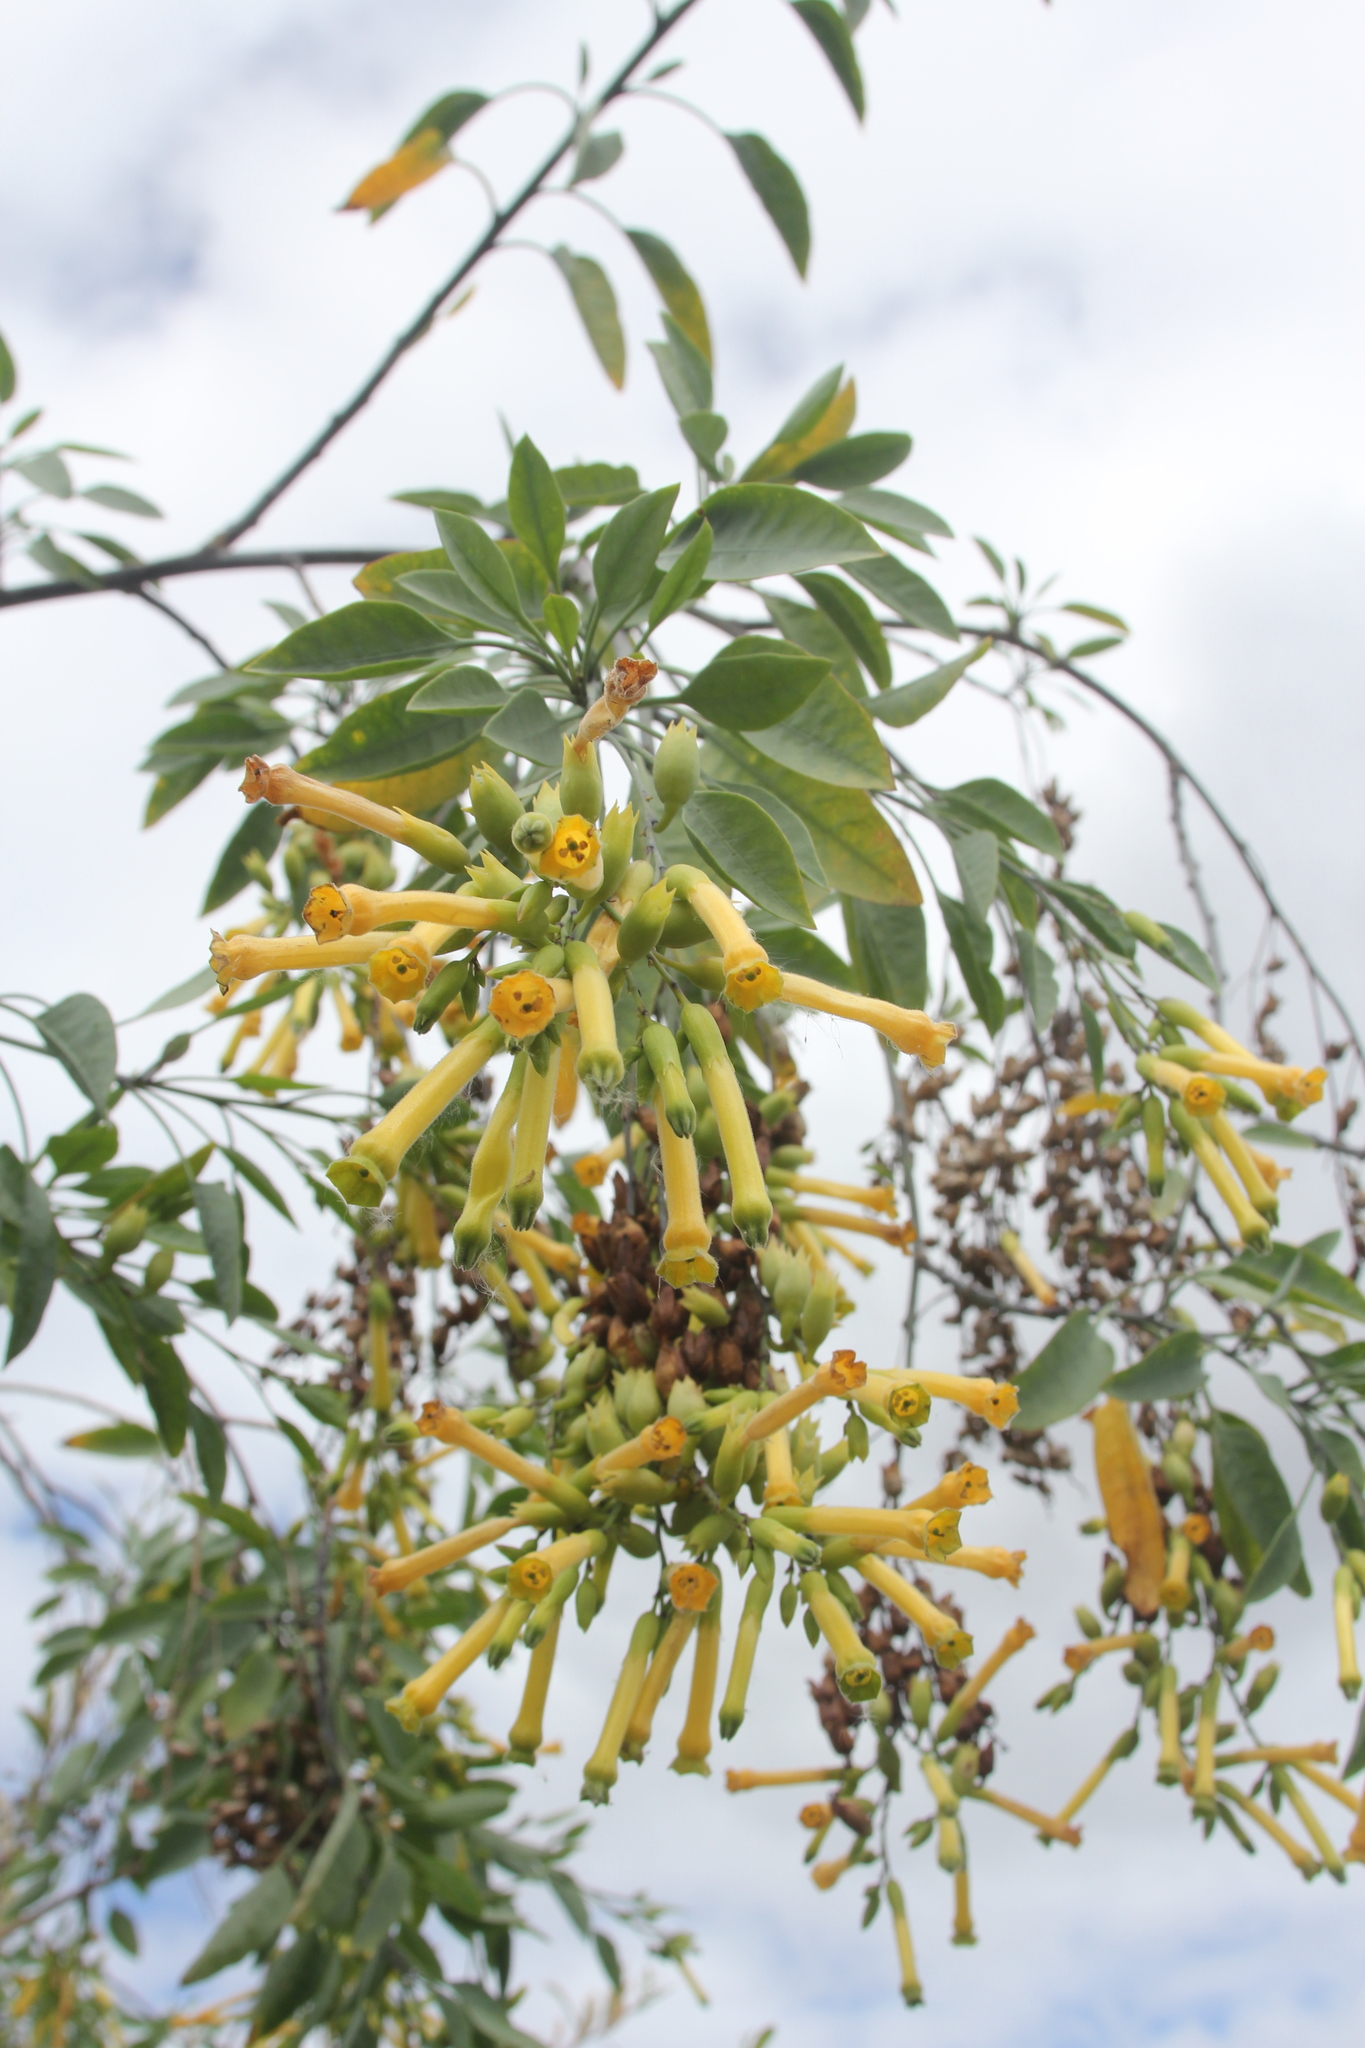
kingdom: Plantae
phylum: Tracheophyta
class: Magnoliopsida
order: Solanales
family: Solanaceae
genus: Nicotiana
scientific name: Nicotiana glauca
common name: Tree tobacco
